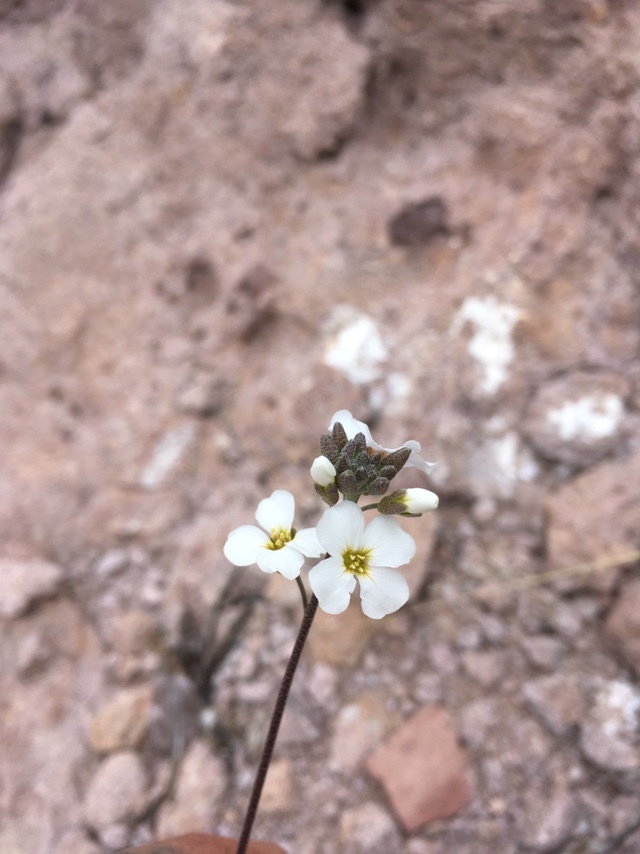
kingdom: Plantae
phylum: Tracheophyta
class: Magnoliopsida
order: Brassicales
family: Brassicaceae
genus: Physaria
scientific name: Physaria purpurea
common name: Rose bladderpod
